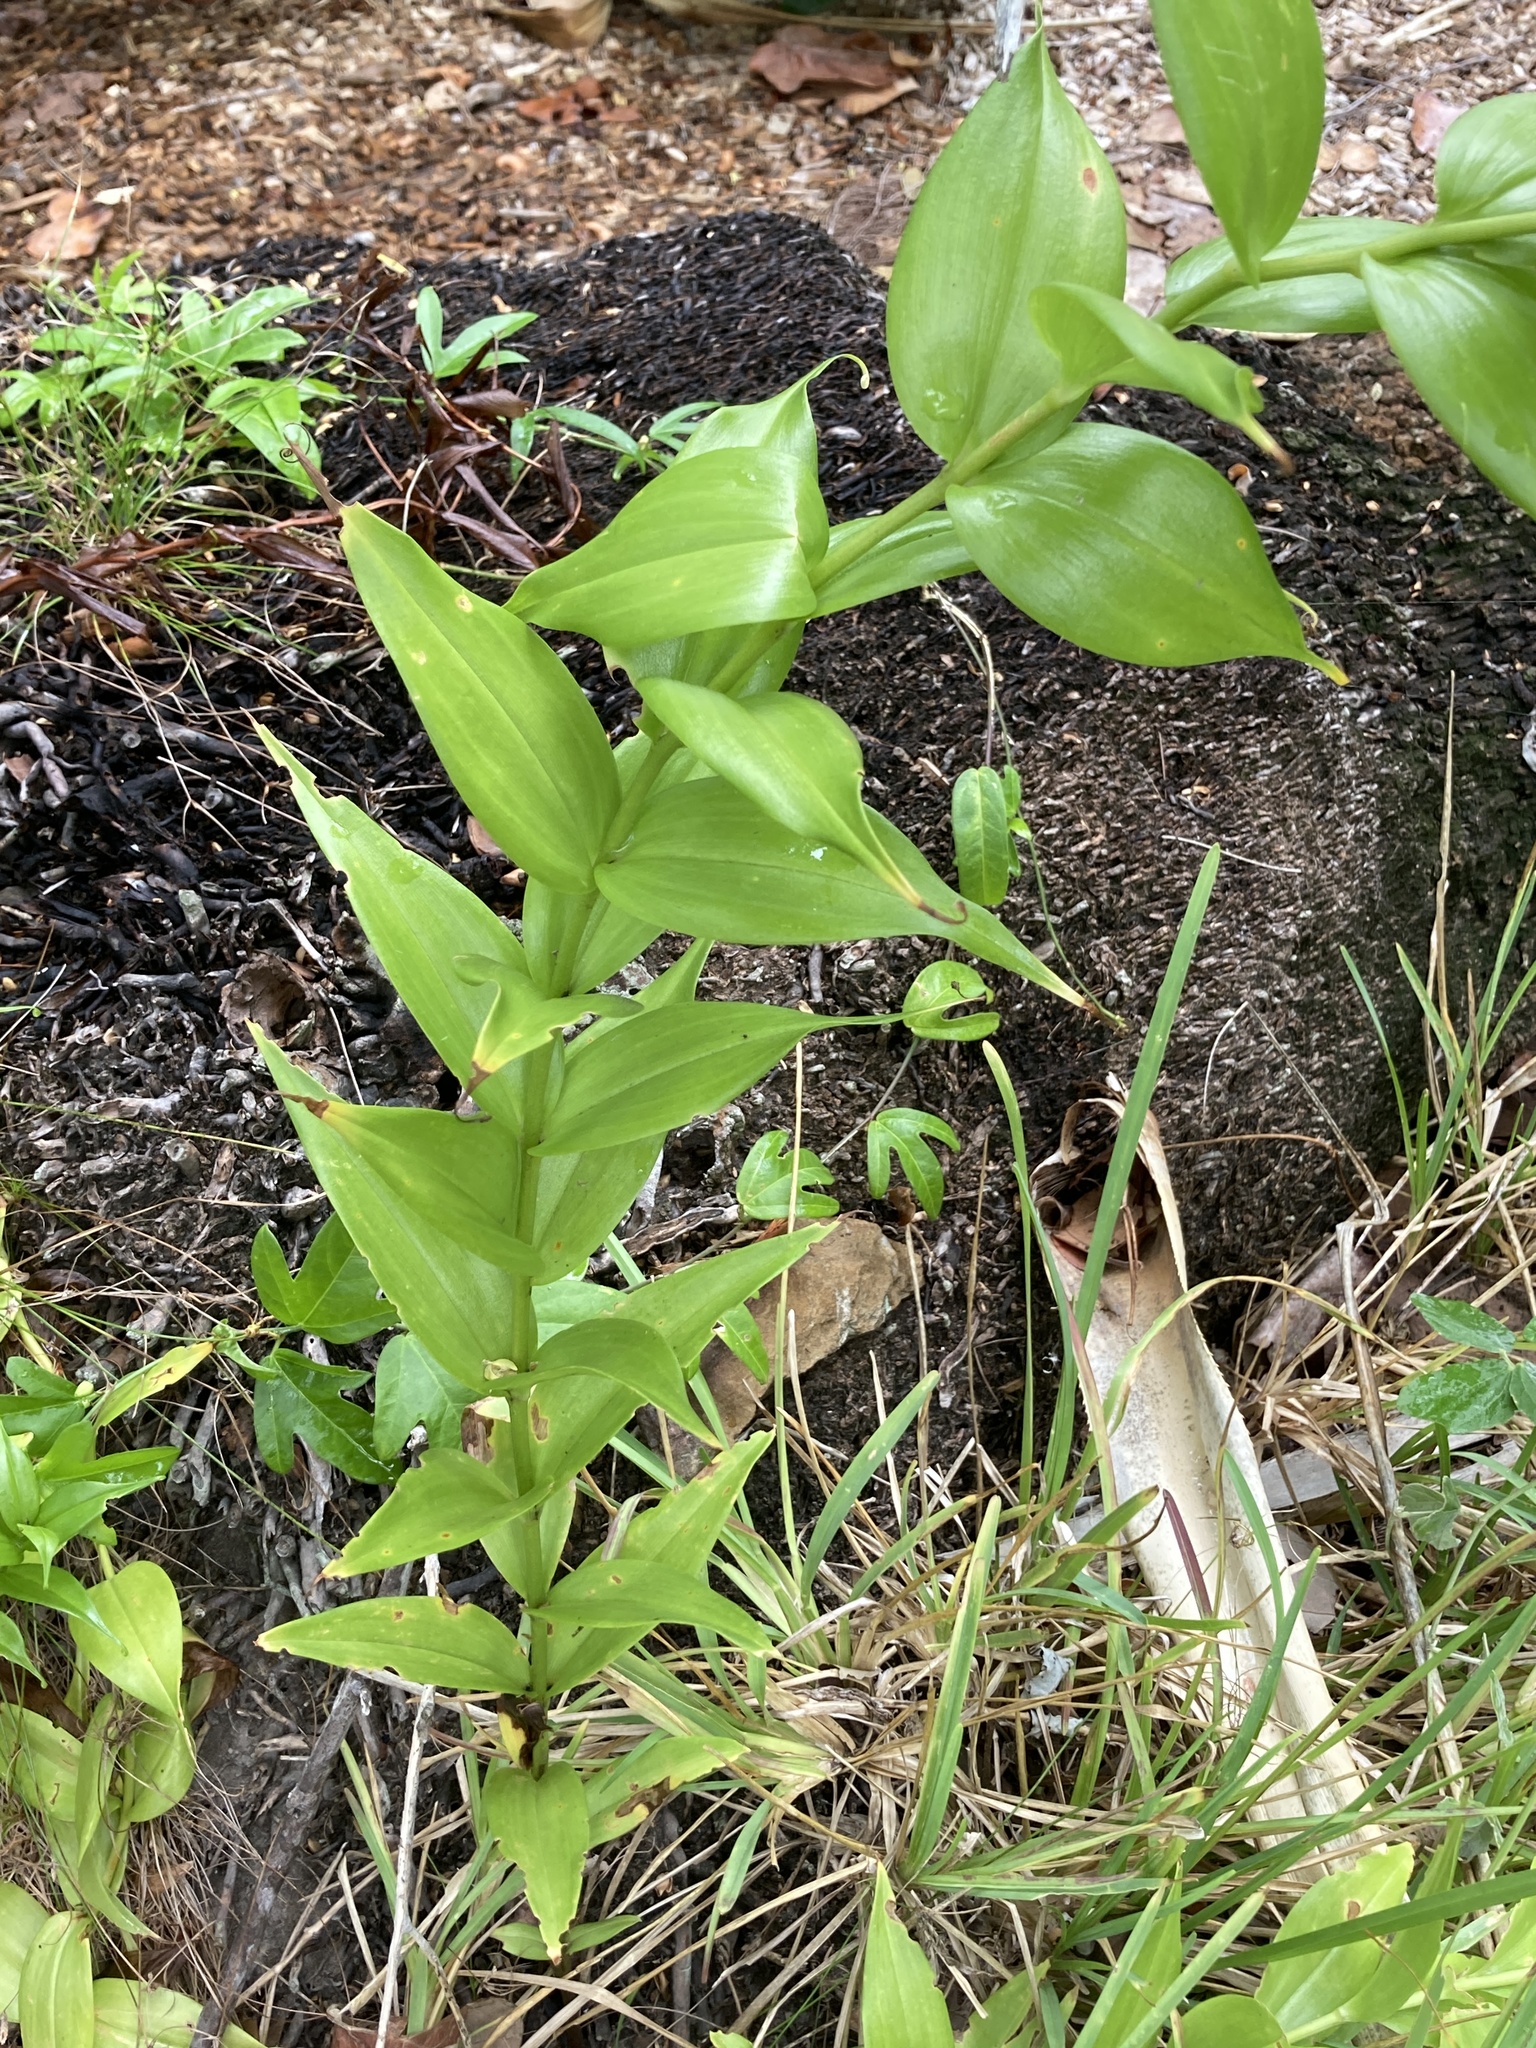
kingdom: Plantae
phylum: Tracheophyta
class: Liliopsida
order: Liliales
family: Colchicaceae
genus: Gloriosa
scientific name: Gloriosa superba
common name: Flame lily
